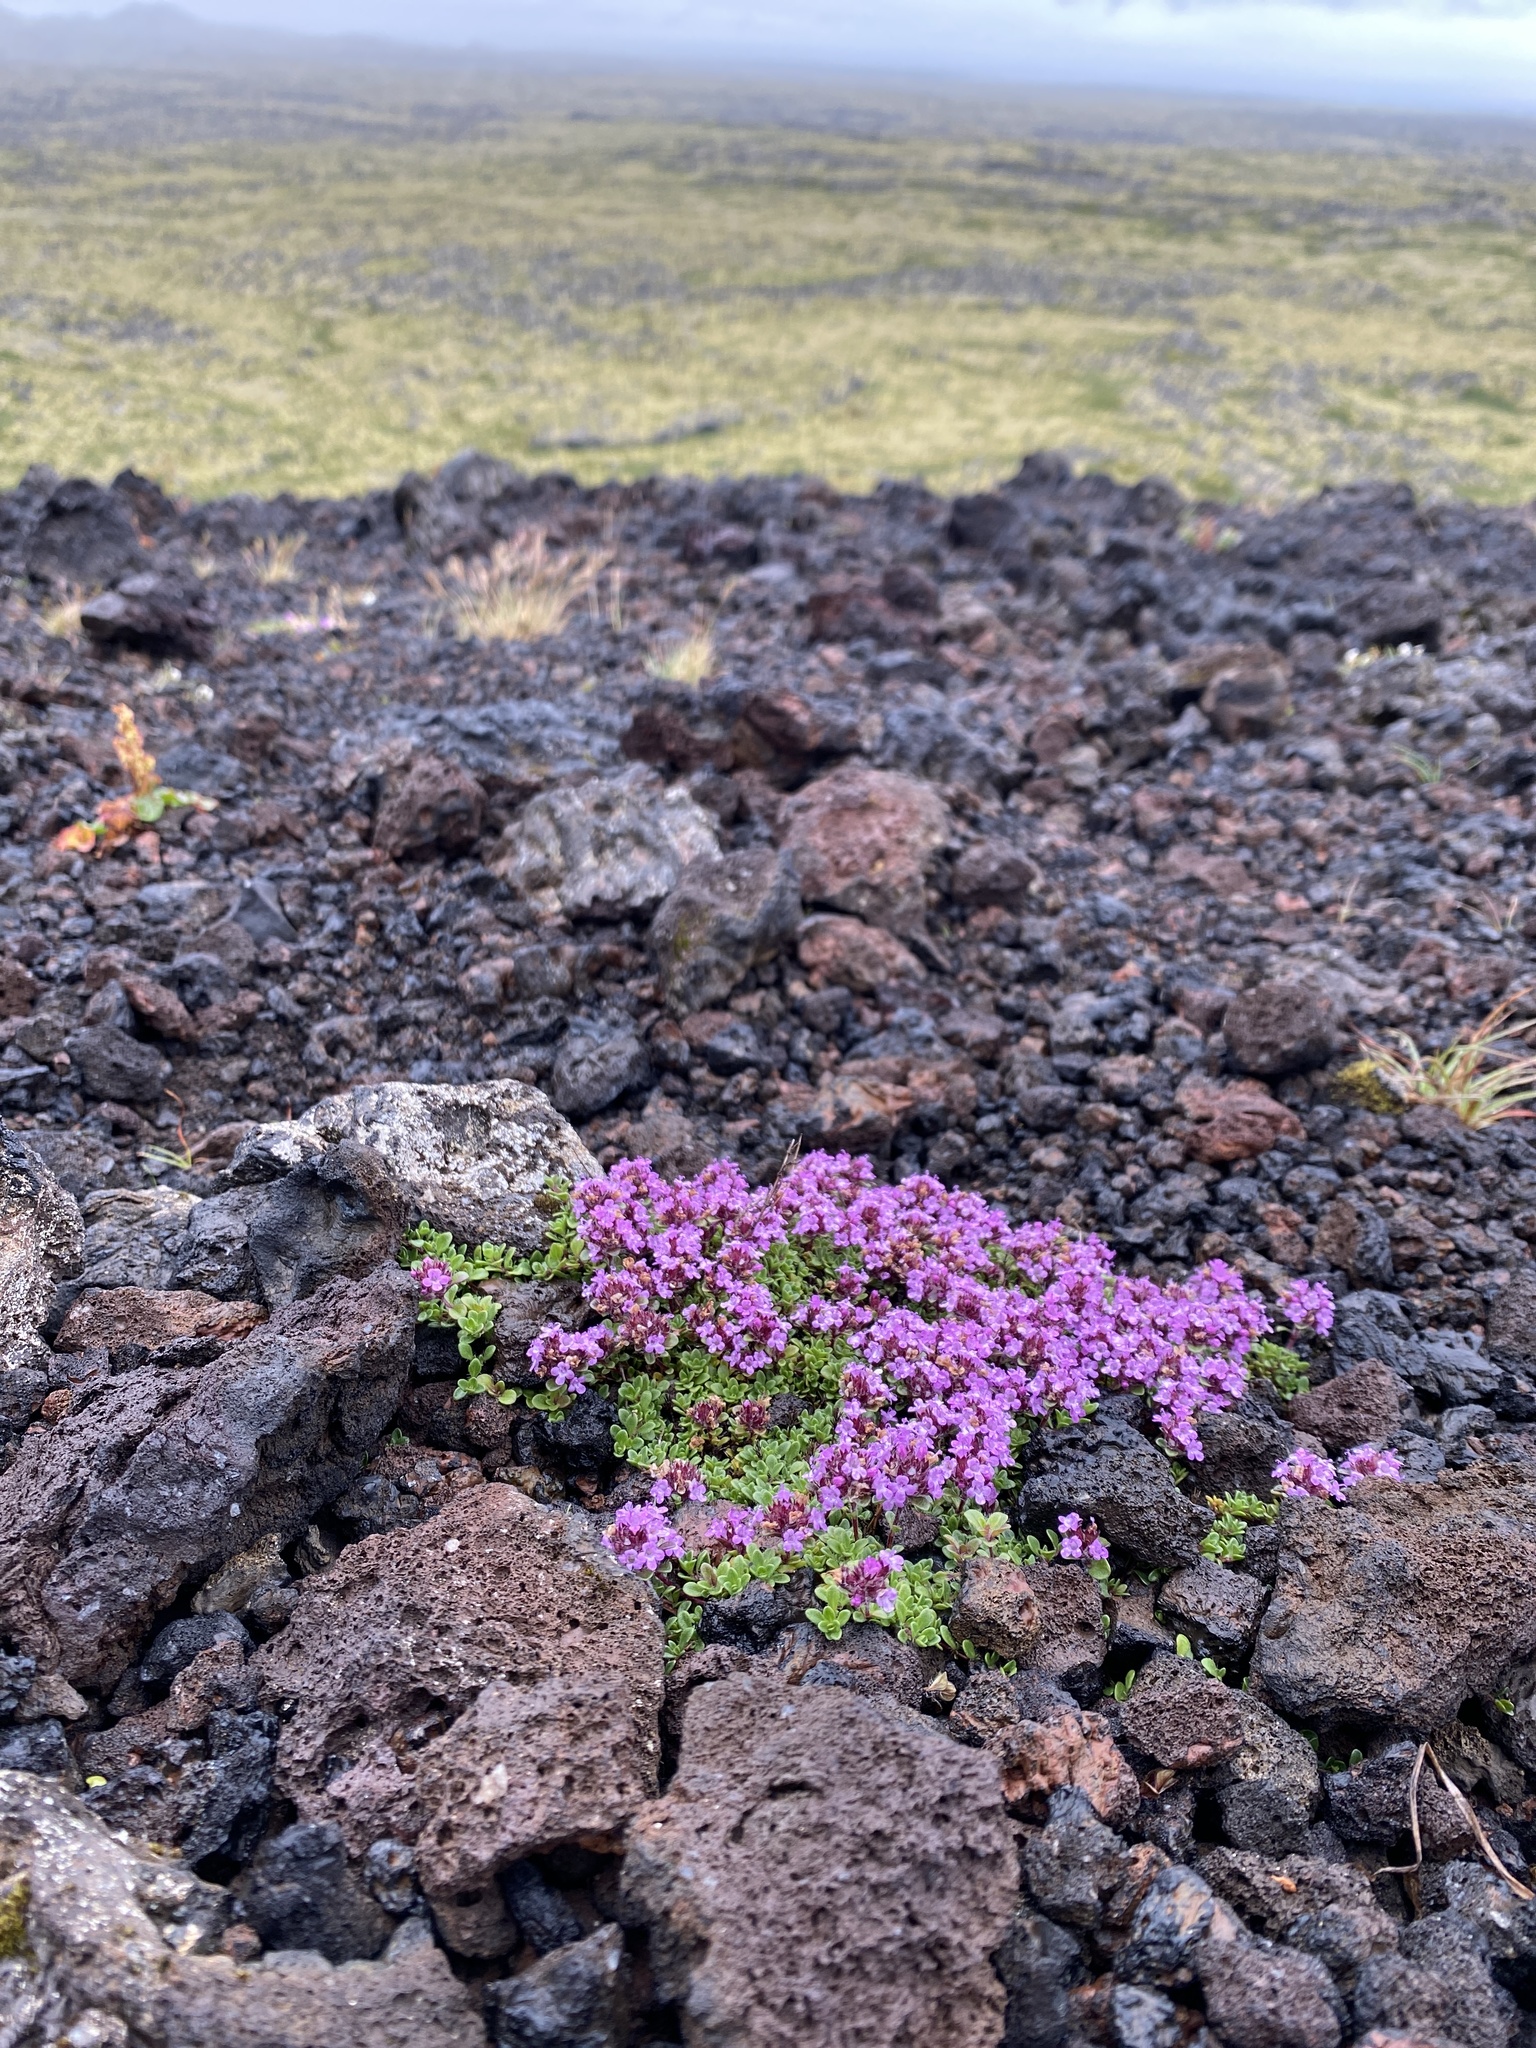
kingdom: Plantae
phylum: Tracheophyta
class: Magnoliopsida
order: Lamiales
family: Lamiaceae
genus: Thymus
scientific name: Thymus praecox
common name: Wild thyme
